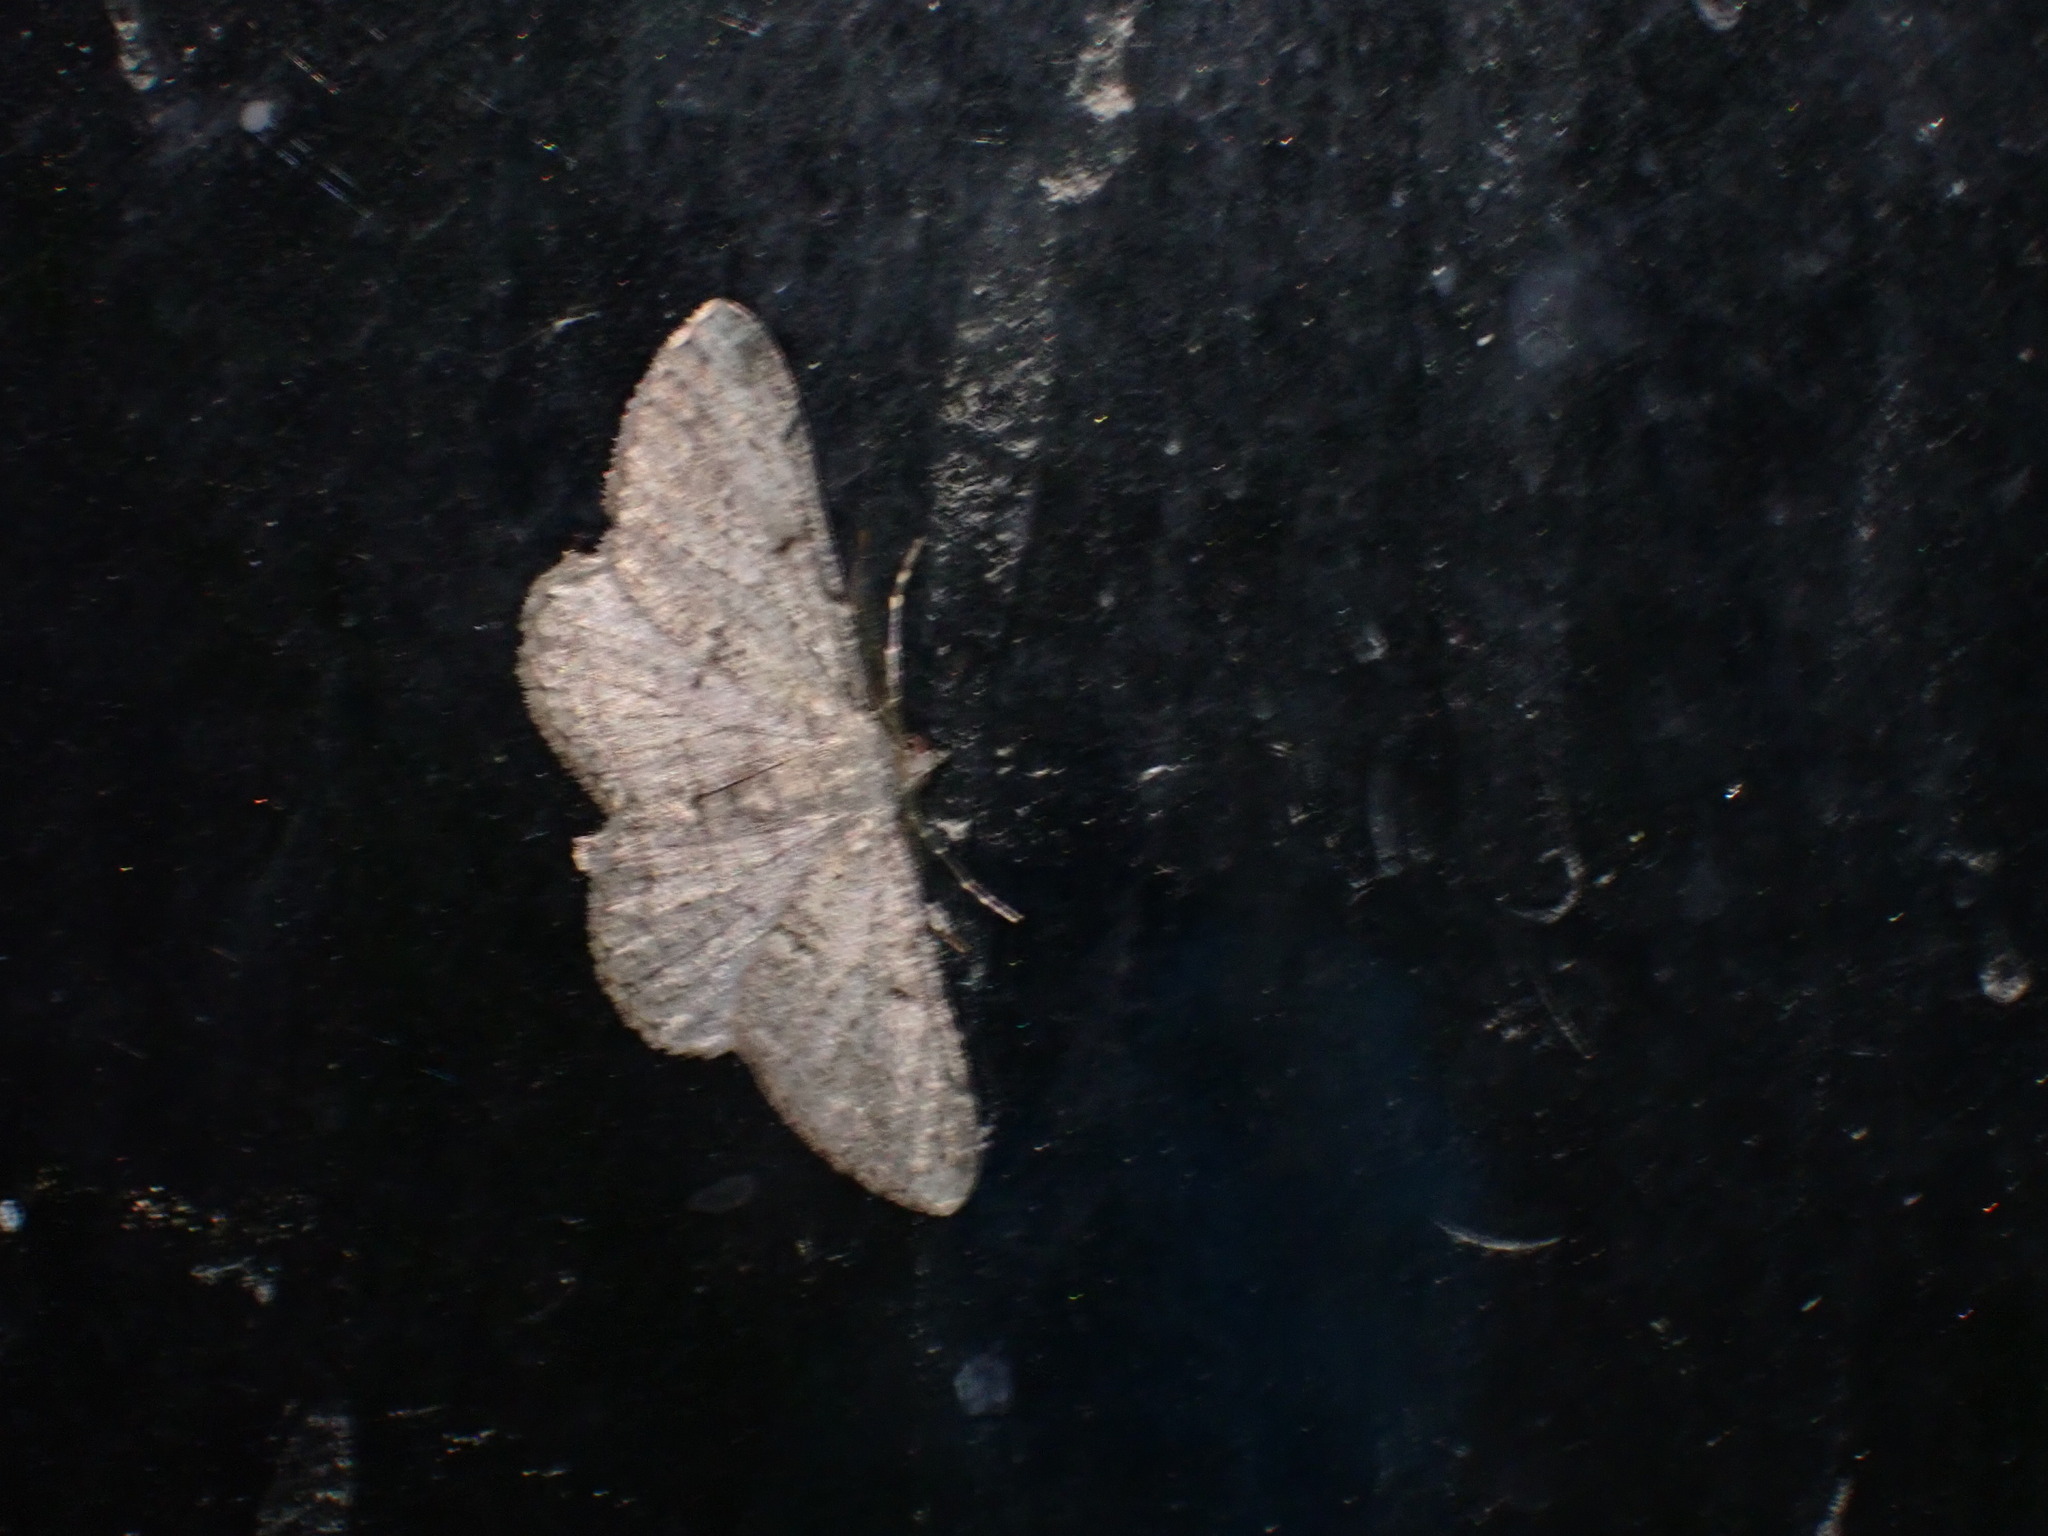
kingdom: Animalia
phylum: Arthropoda
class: Insecta
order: Lepidoptera
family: Geometridae
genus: Peribatodes
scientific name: Peribatodes rhomboidaria
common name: Willow beauty
